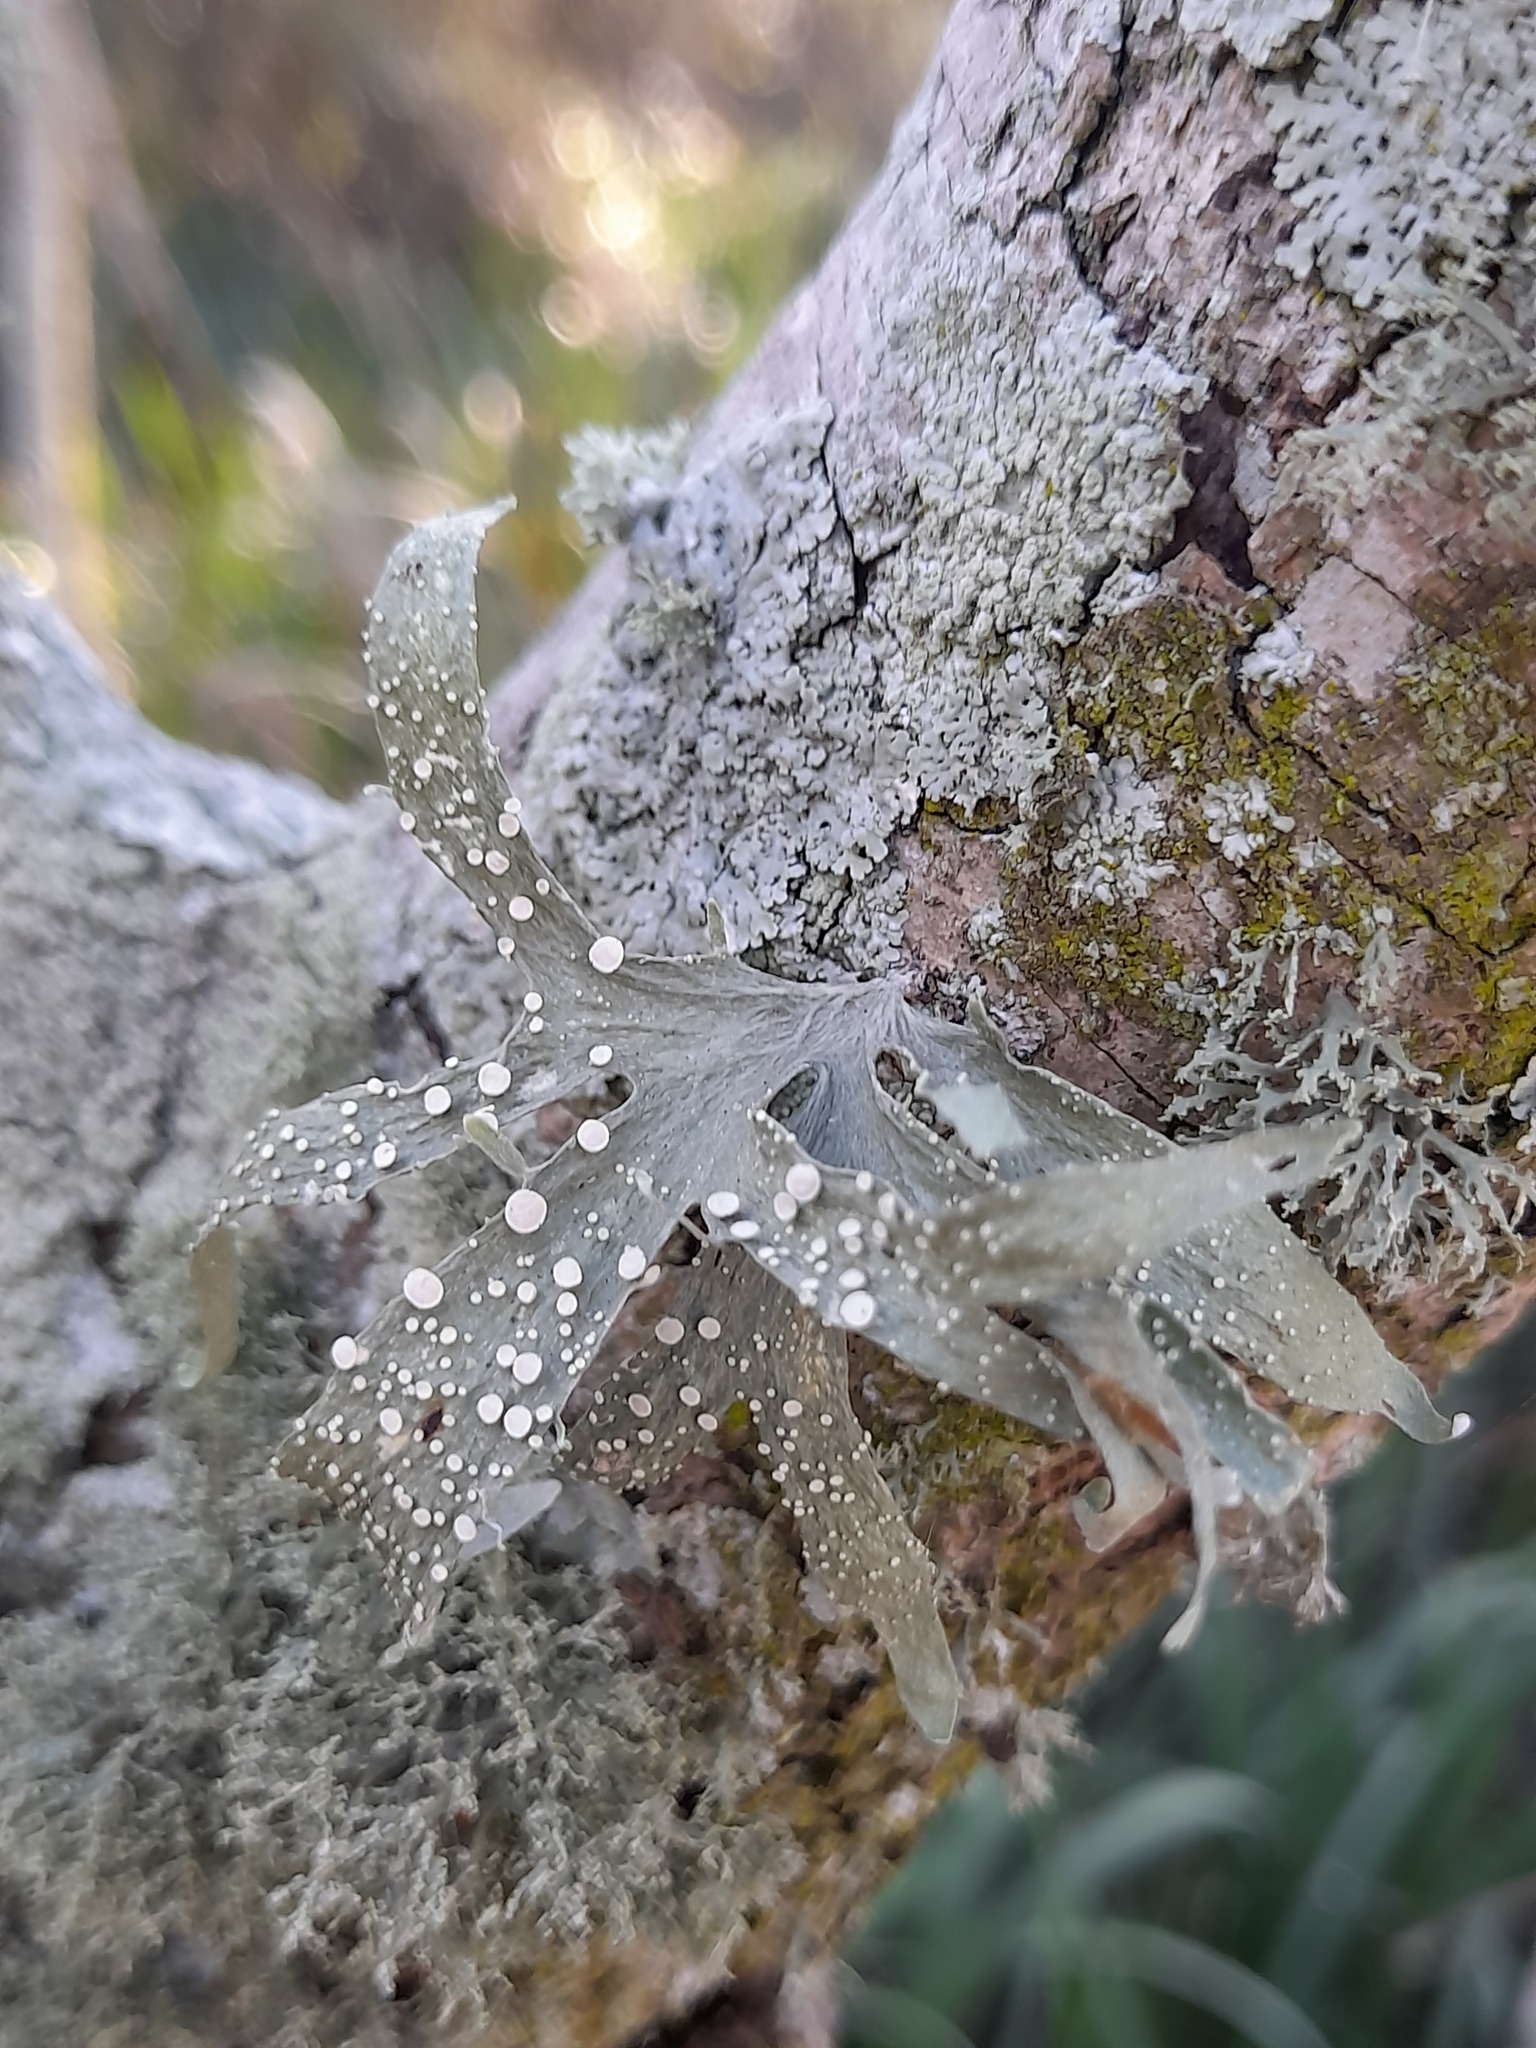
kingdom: Fungi
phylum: Ascomycota
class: Lecanoromycetes
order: Lecanorales
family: Ramalinaceae
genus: Ramalina
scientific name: Ramalina celastri
